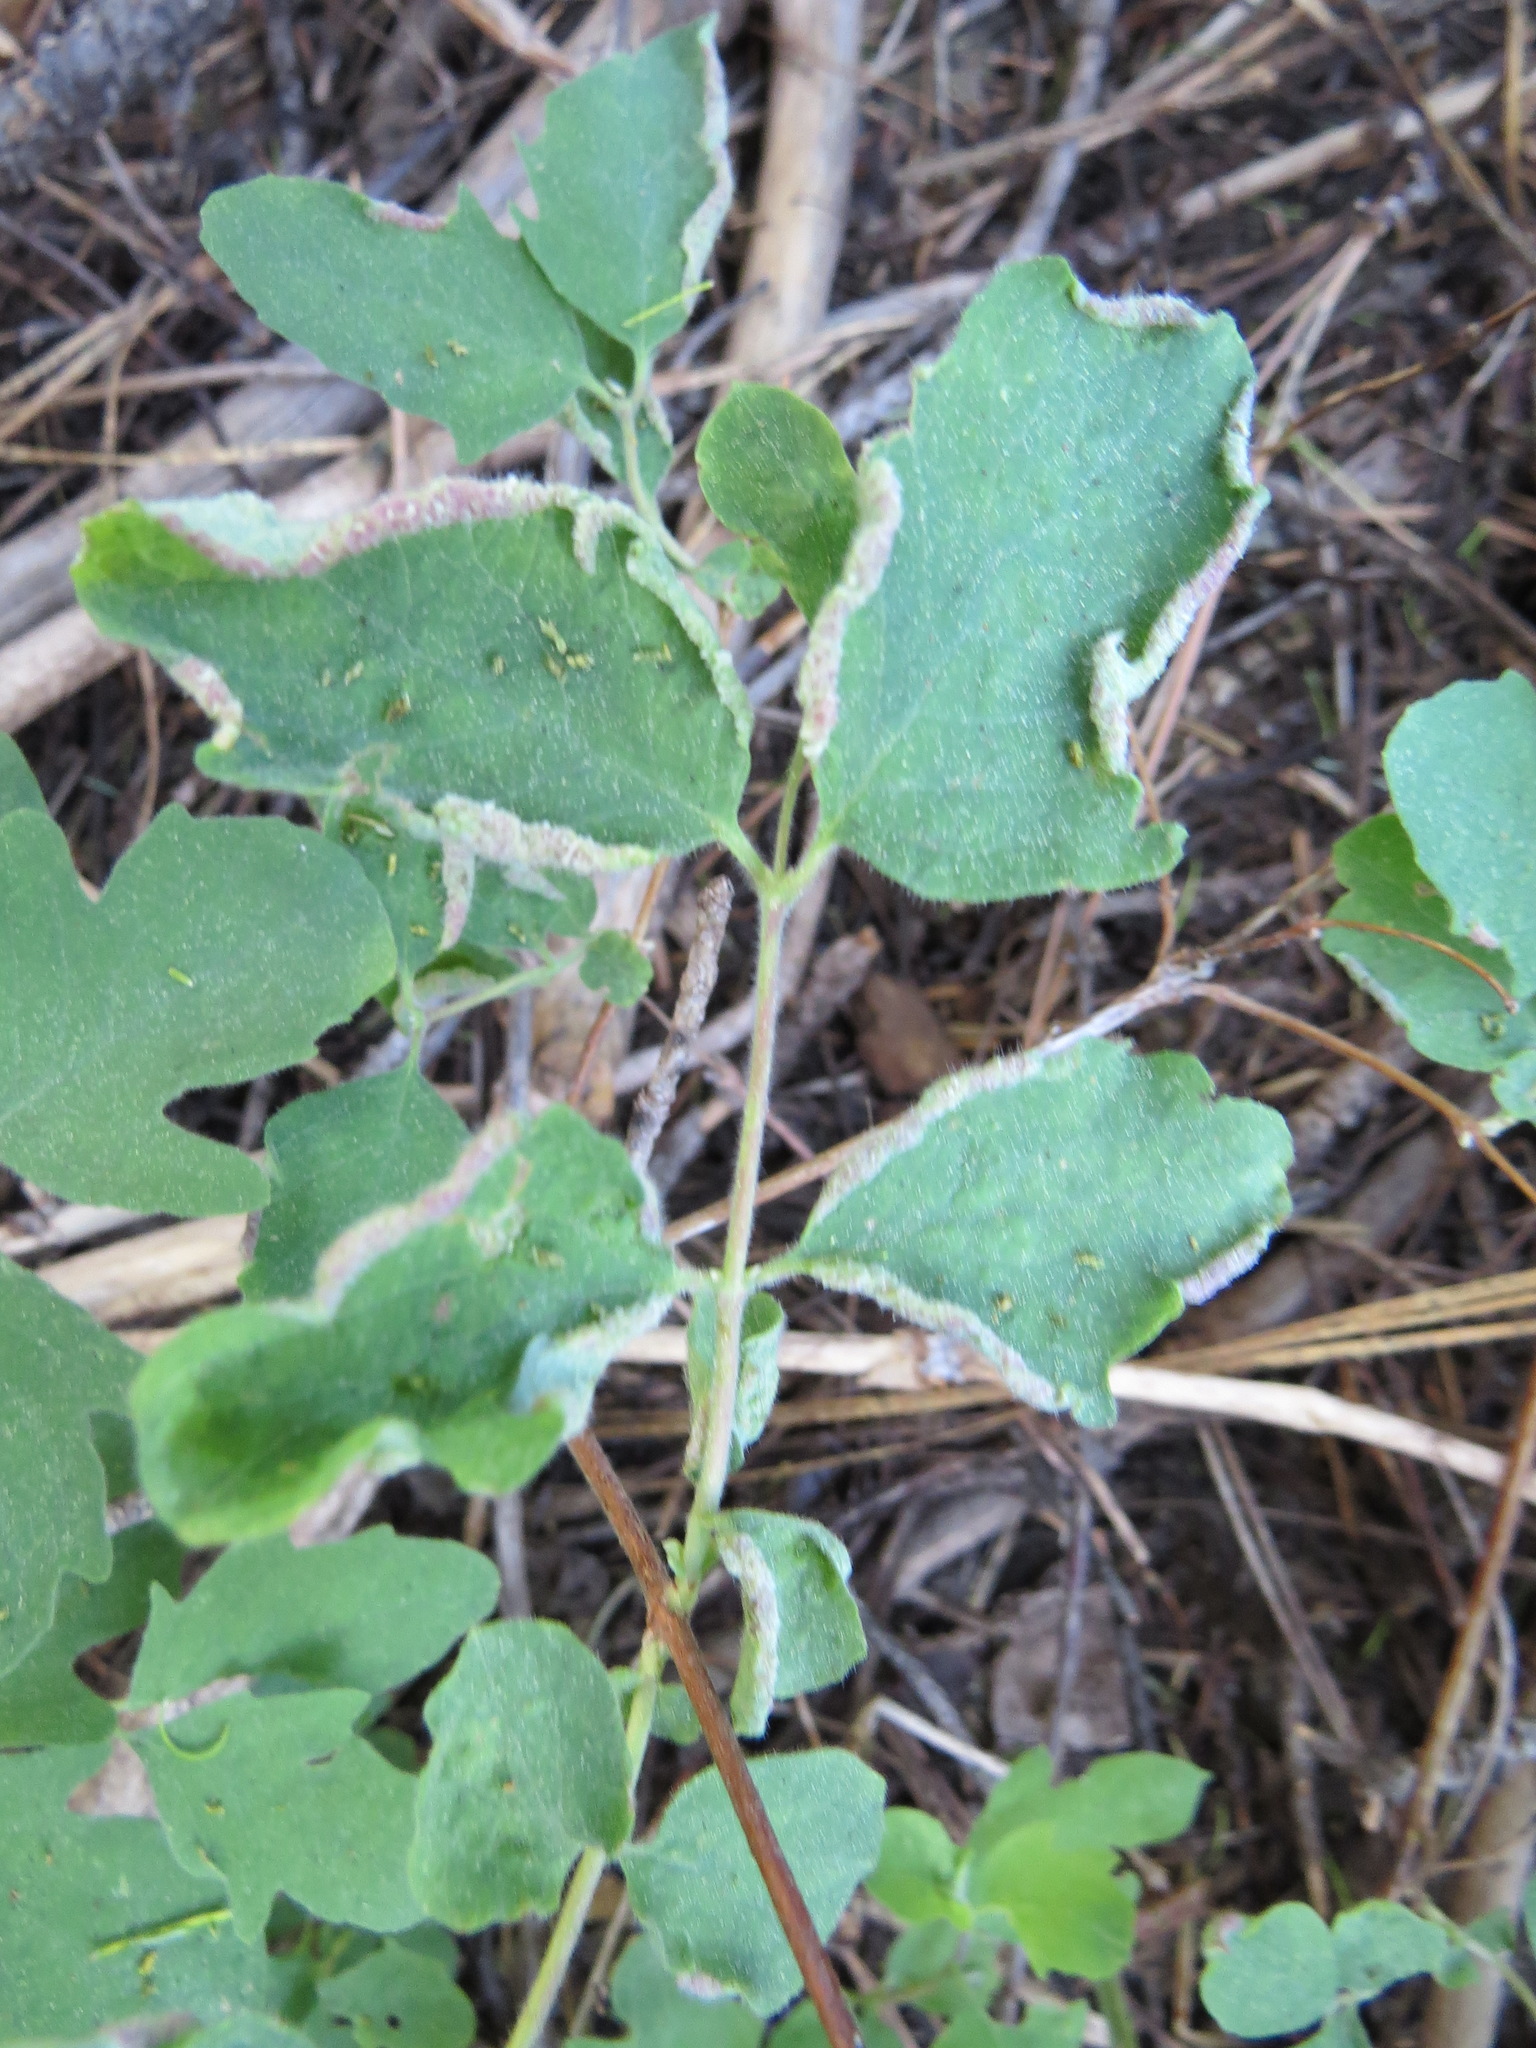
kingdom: Animalia
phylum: Arthropoda
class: Arachnida
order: Trombidiformes
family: Eriophyidae
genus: Phyllocoptes
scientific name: Phyllocoptes
